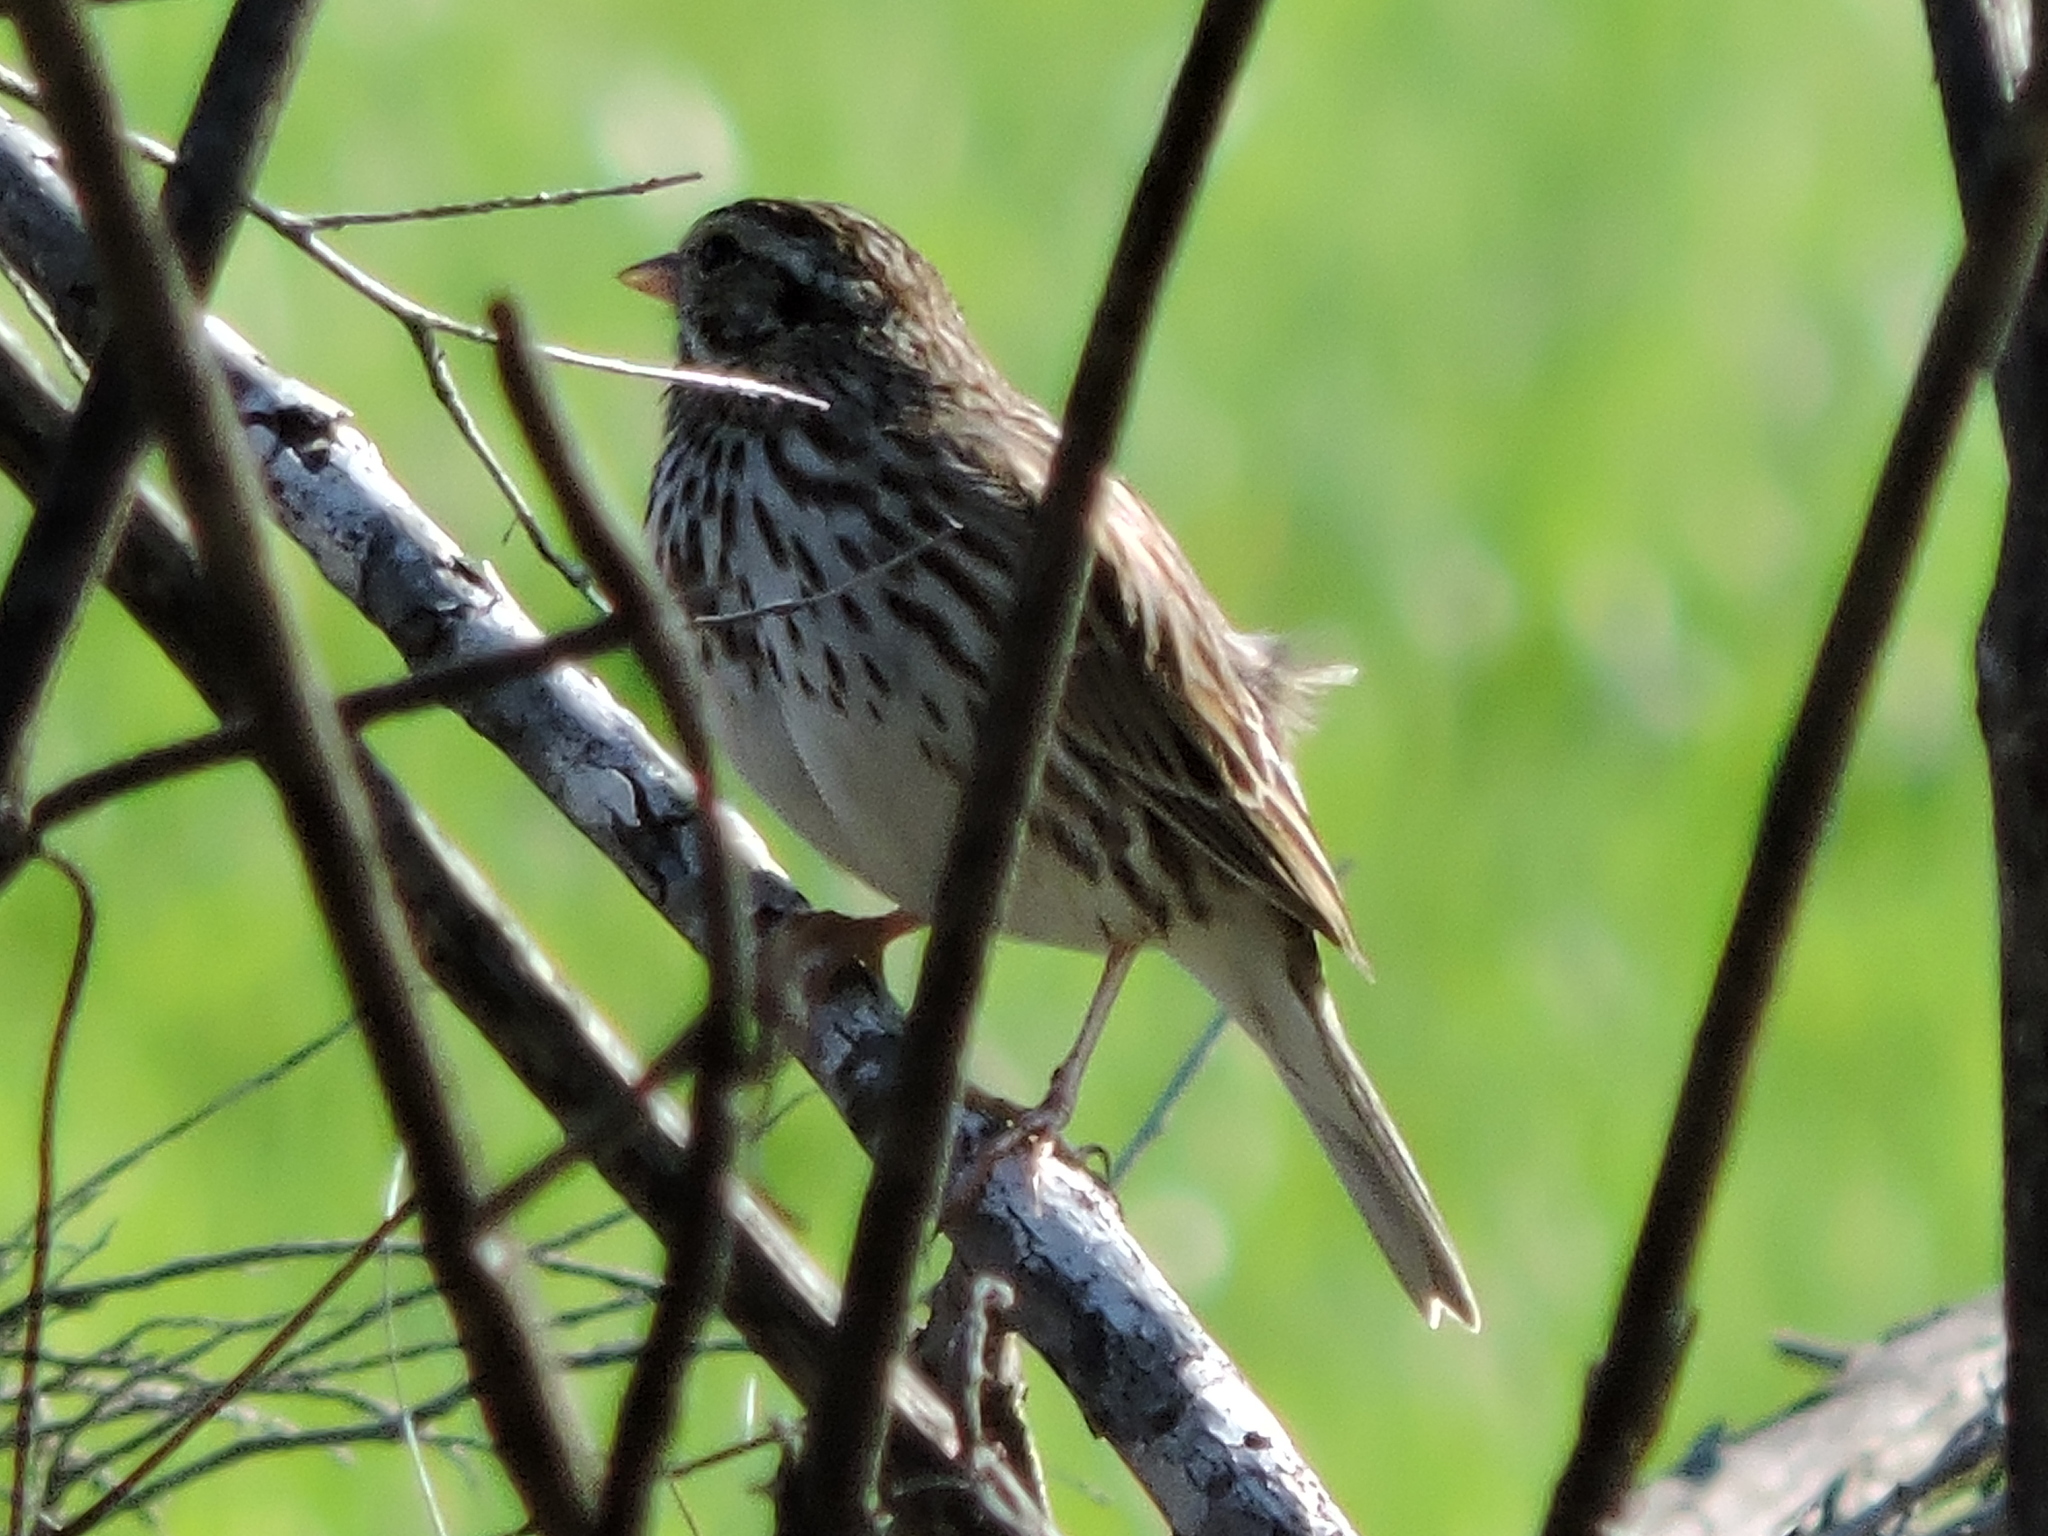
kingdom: Animalia
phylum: Chordata
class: Aves
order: Passeriformes
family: Passerellidae
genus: Passerculus
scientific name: Passerculus sandwichensis
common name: Savannah sparrow
